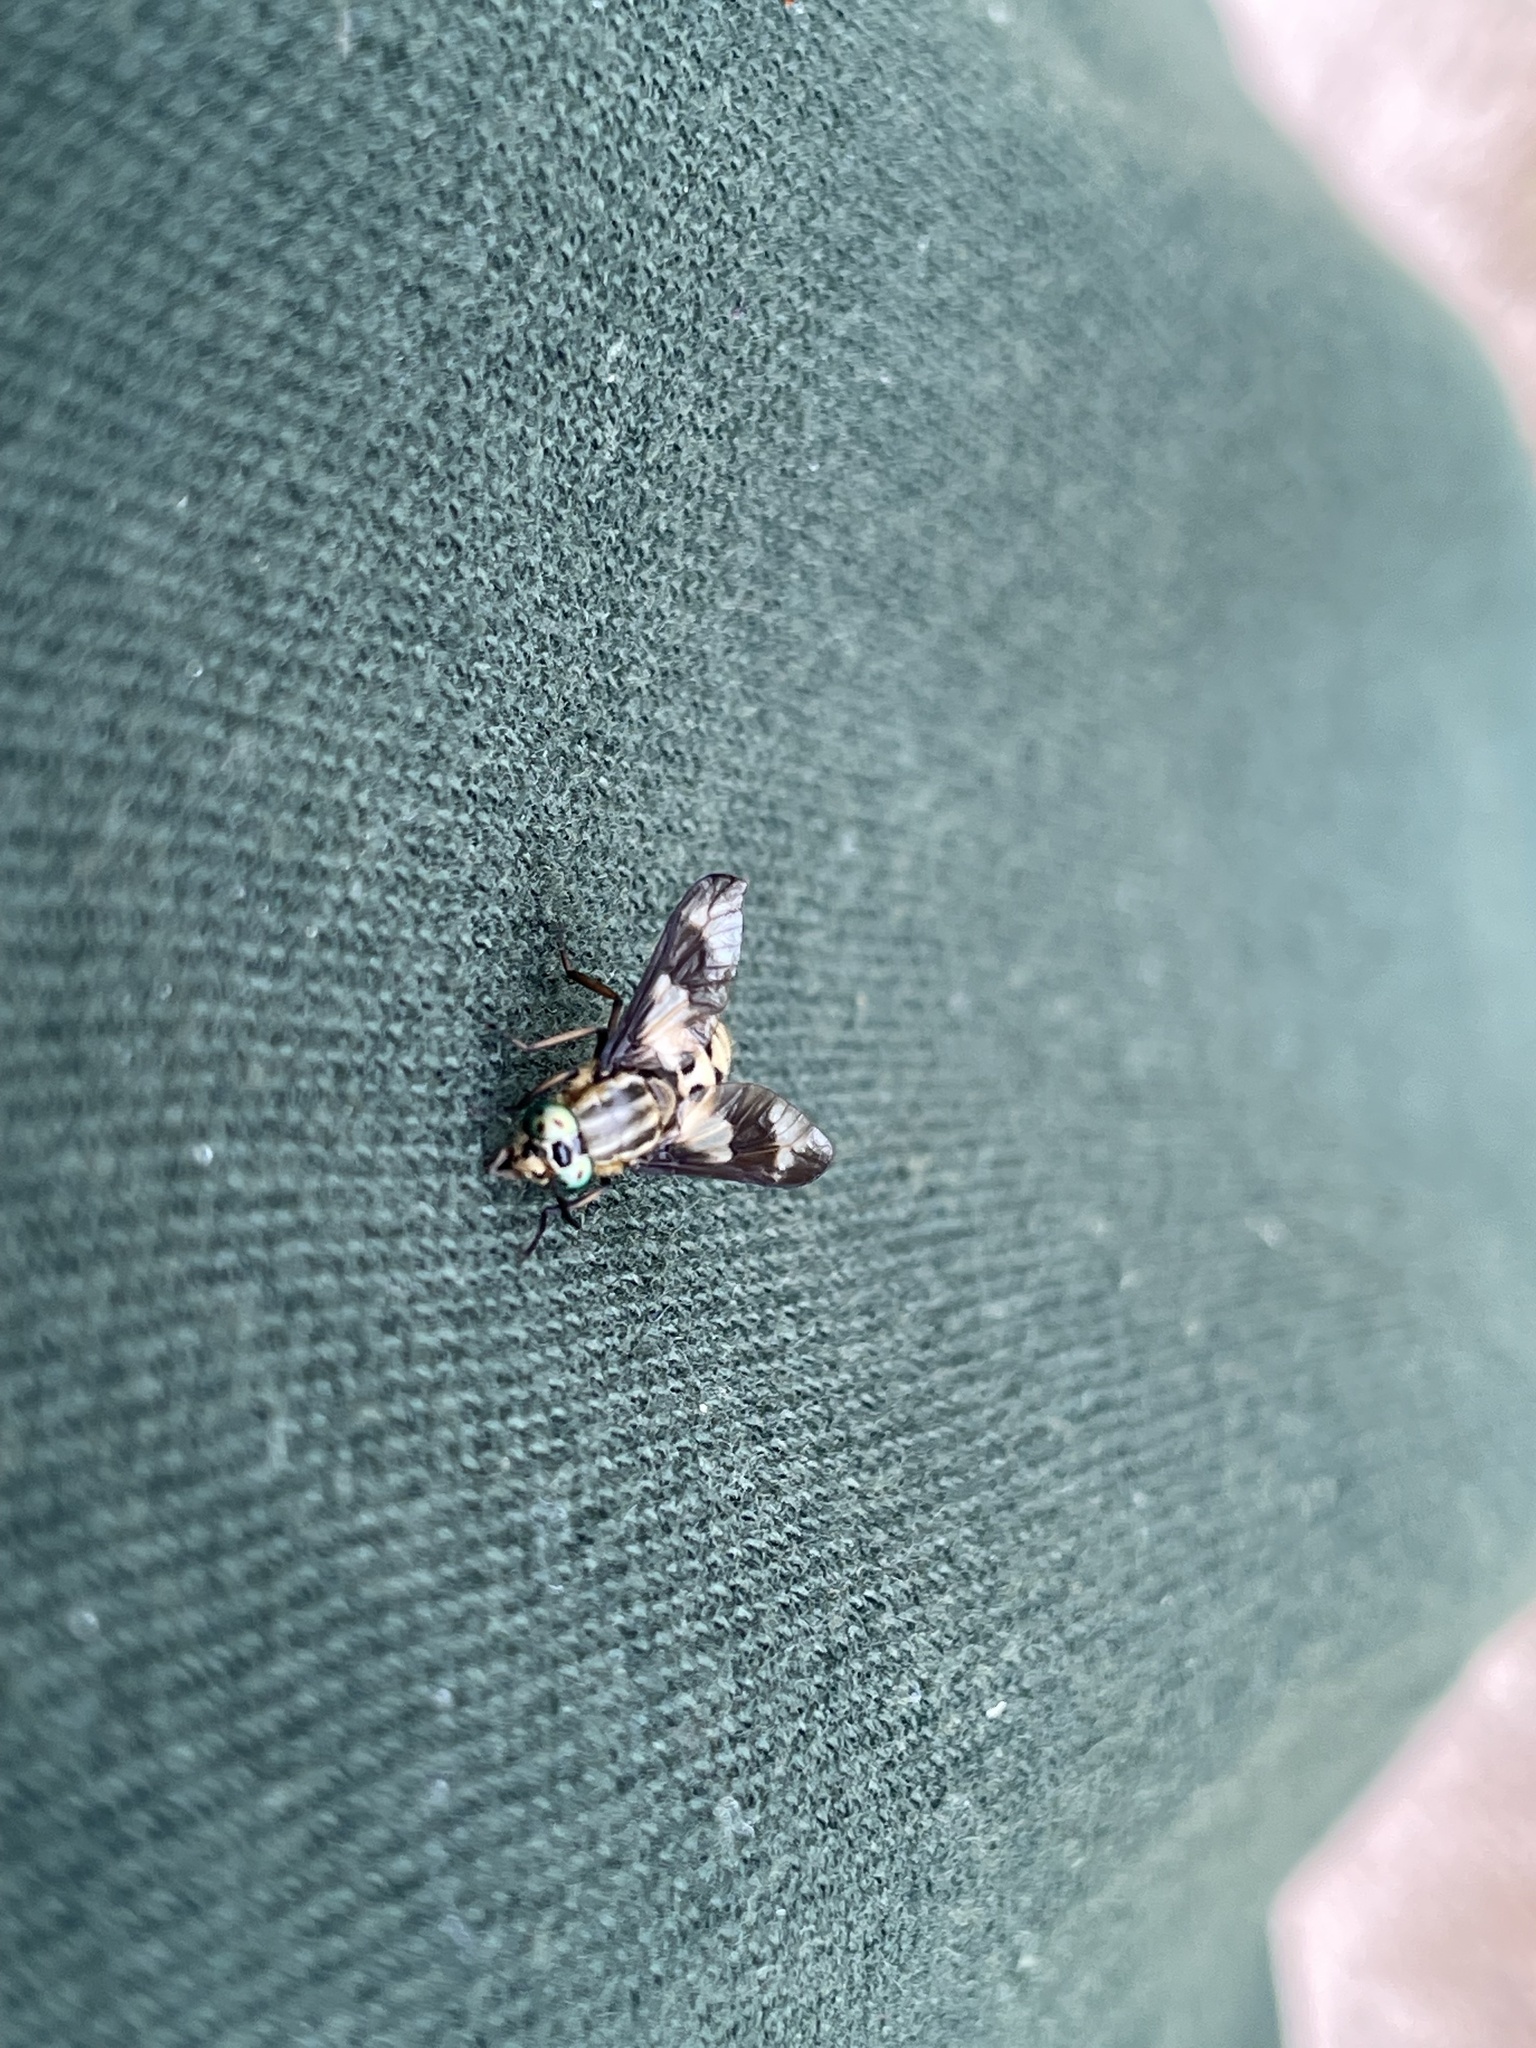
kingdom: Animalia
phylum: Arthropoda
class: Insecta
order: Diptera
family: Tabanidae
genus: Chrysops
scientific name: Chrysops relictus
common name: Twin-lobed deerfly
